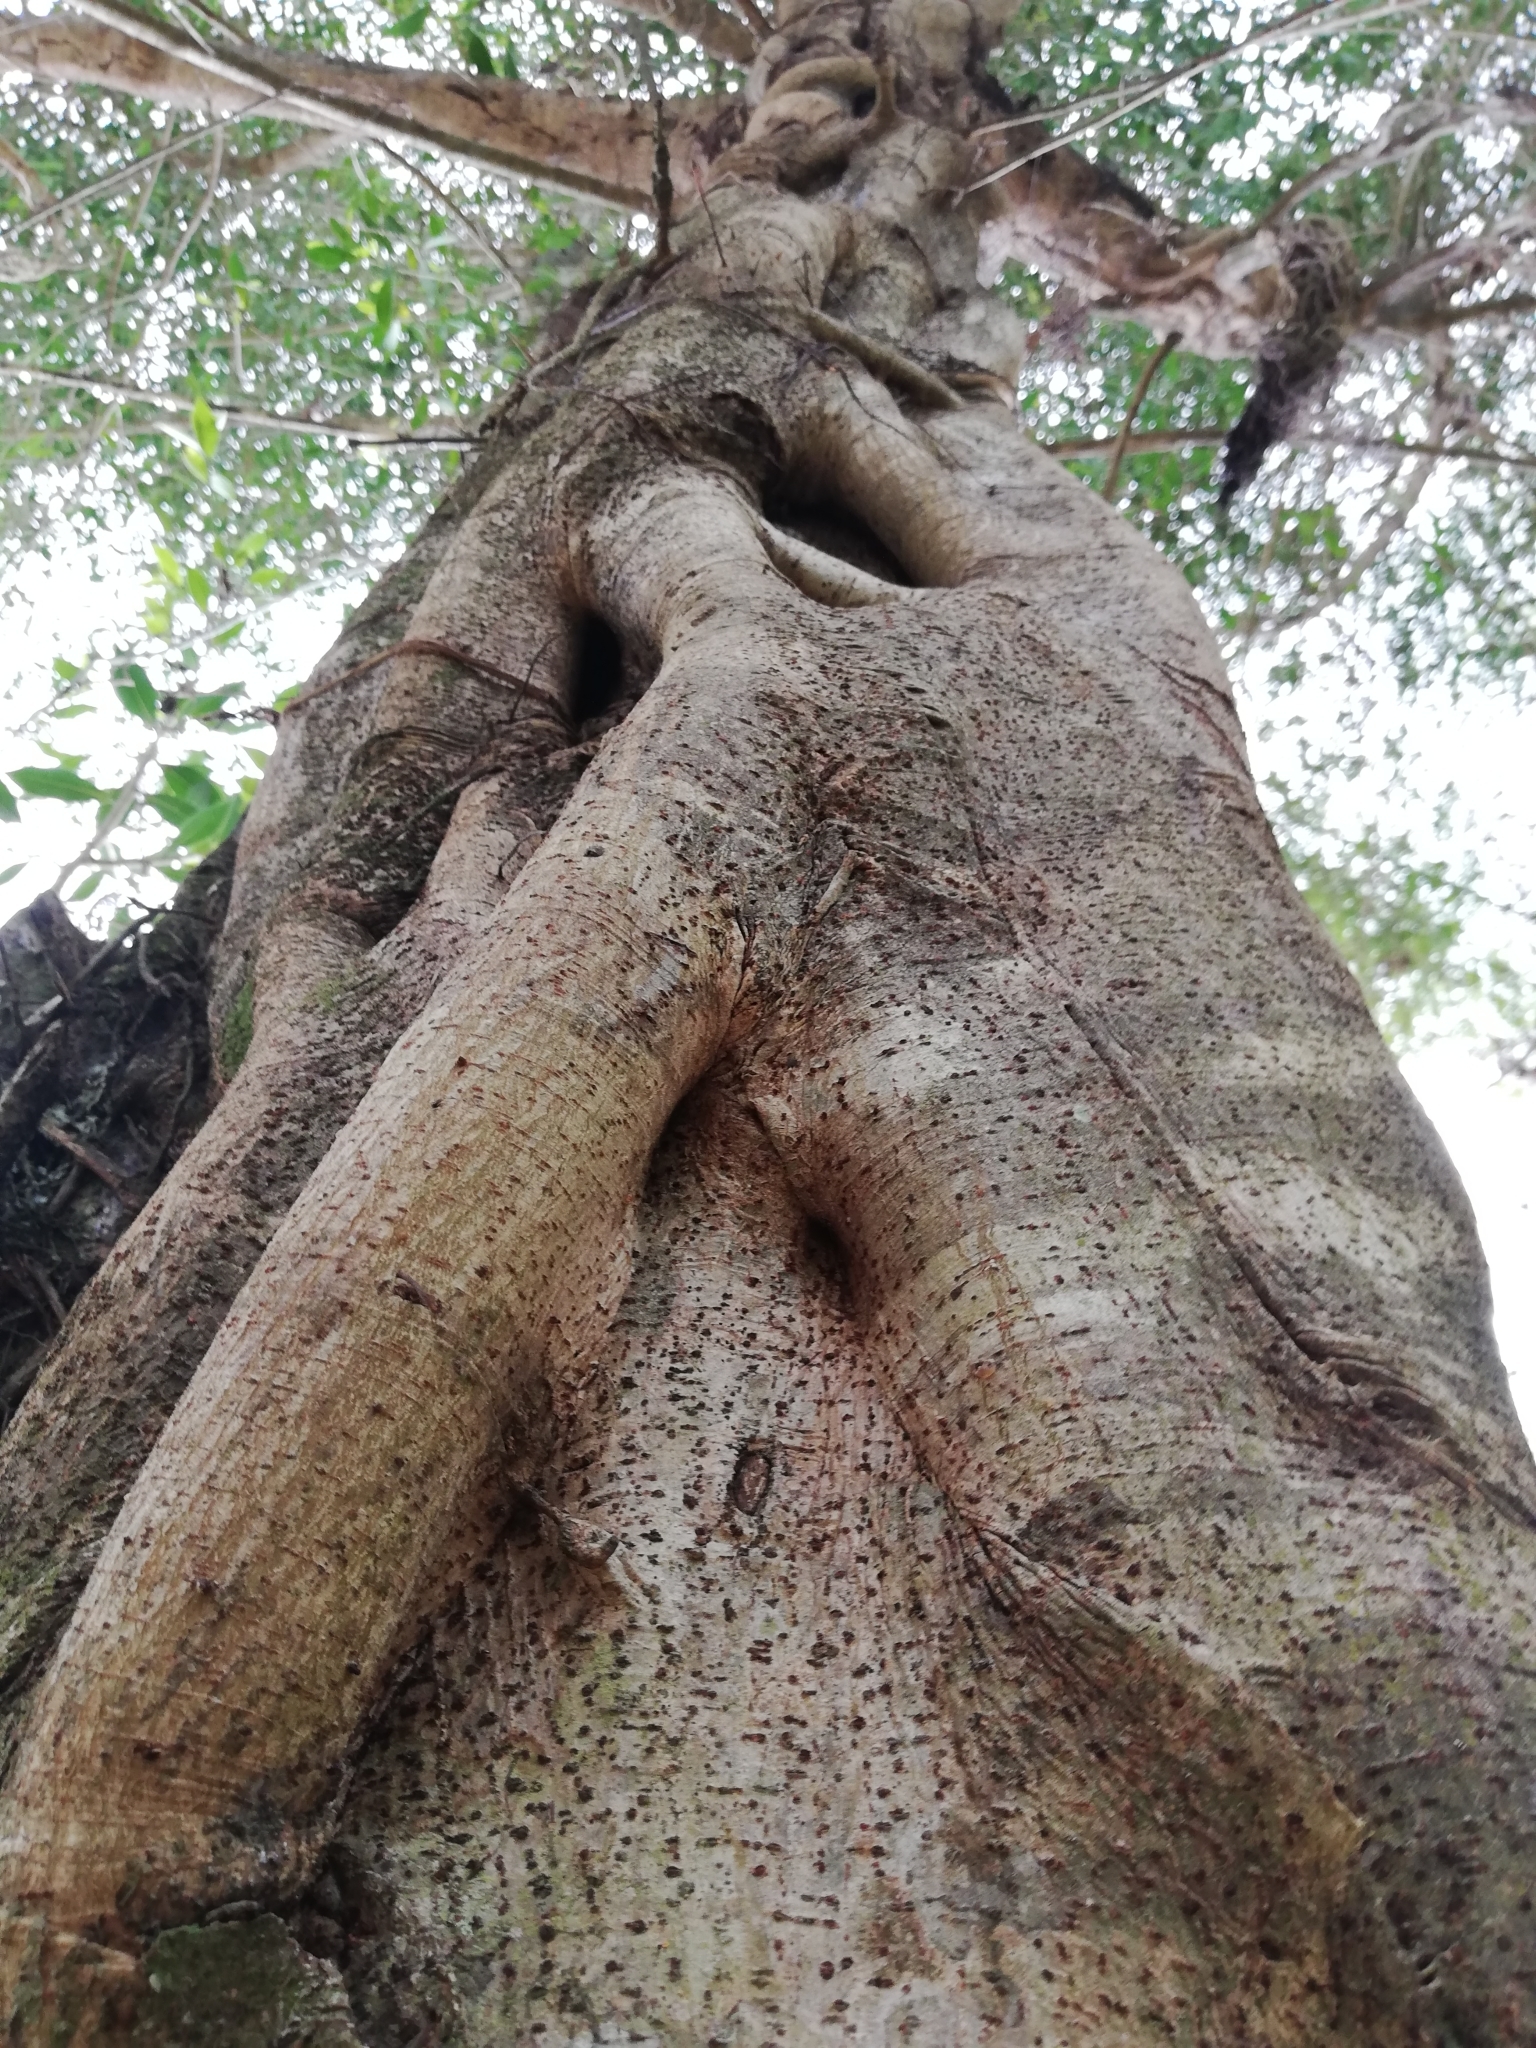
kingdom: Plantae
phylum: Tracheophyta
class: Magnoliopsida
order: Rosales
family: Moraceae
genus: Ficus
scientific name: Ficus insipida
